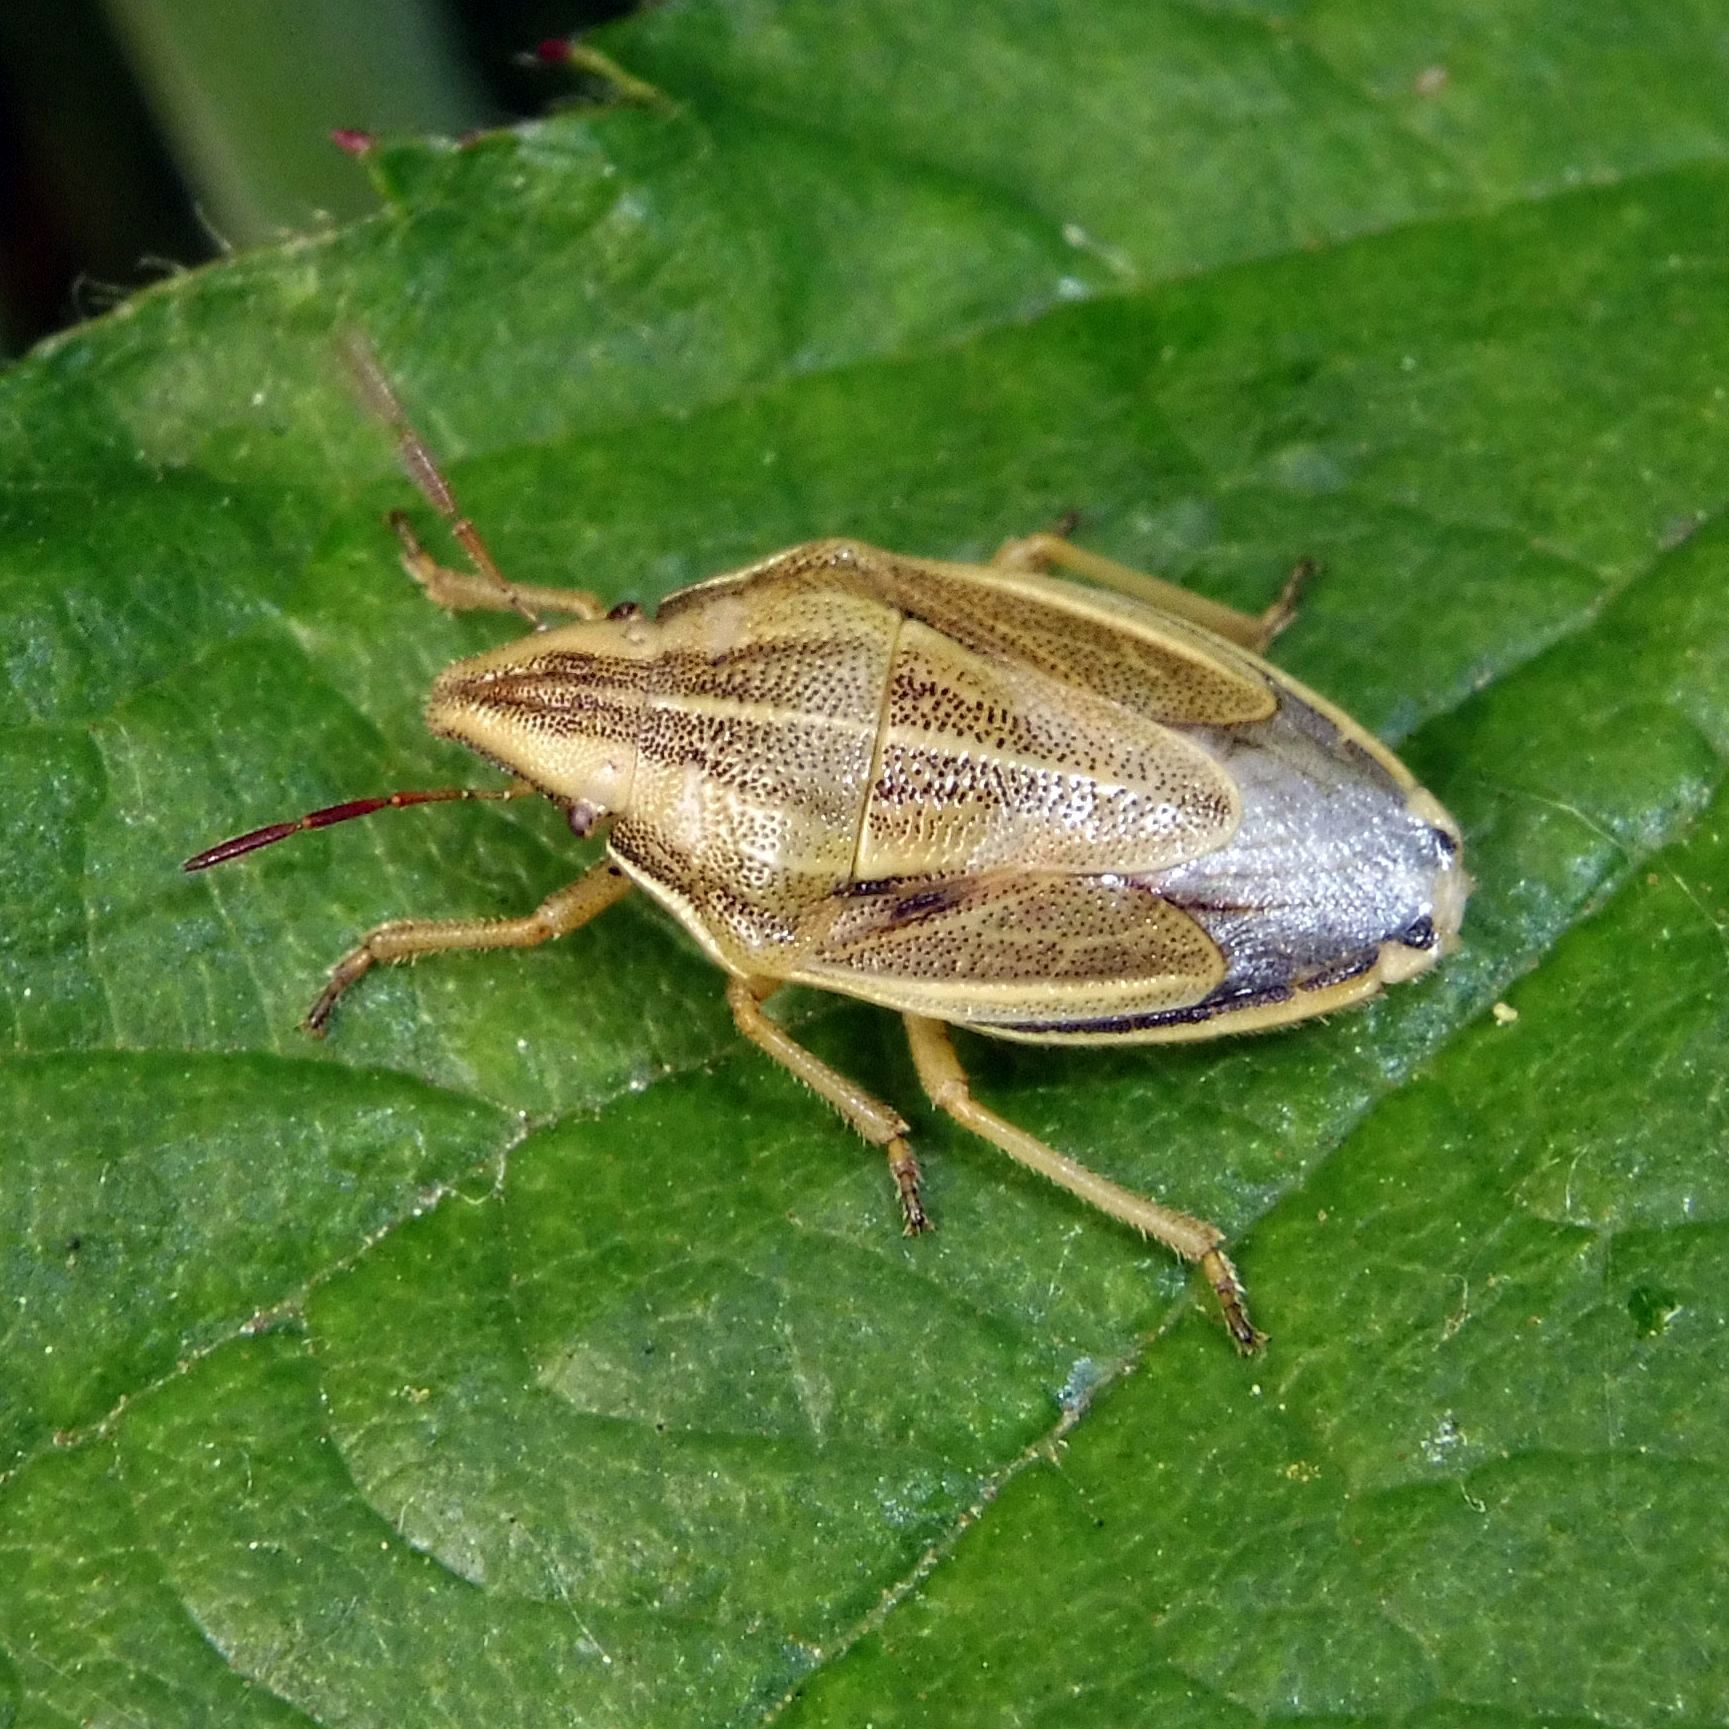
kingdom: Animalia
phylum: Arthropoda
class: Insecta
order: Hemiptera
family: Pentatomidae
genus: Aelia
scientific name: Aelia acuminata
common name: Bishop's mitre
